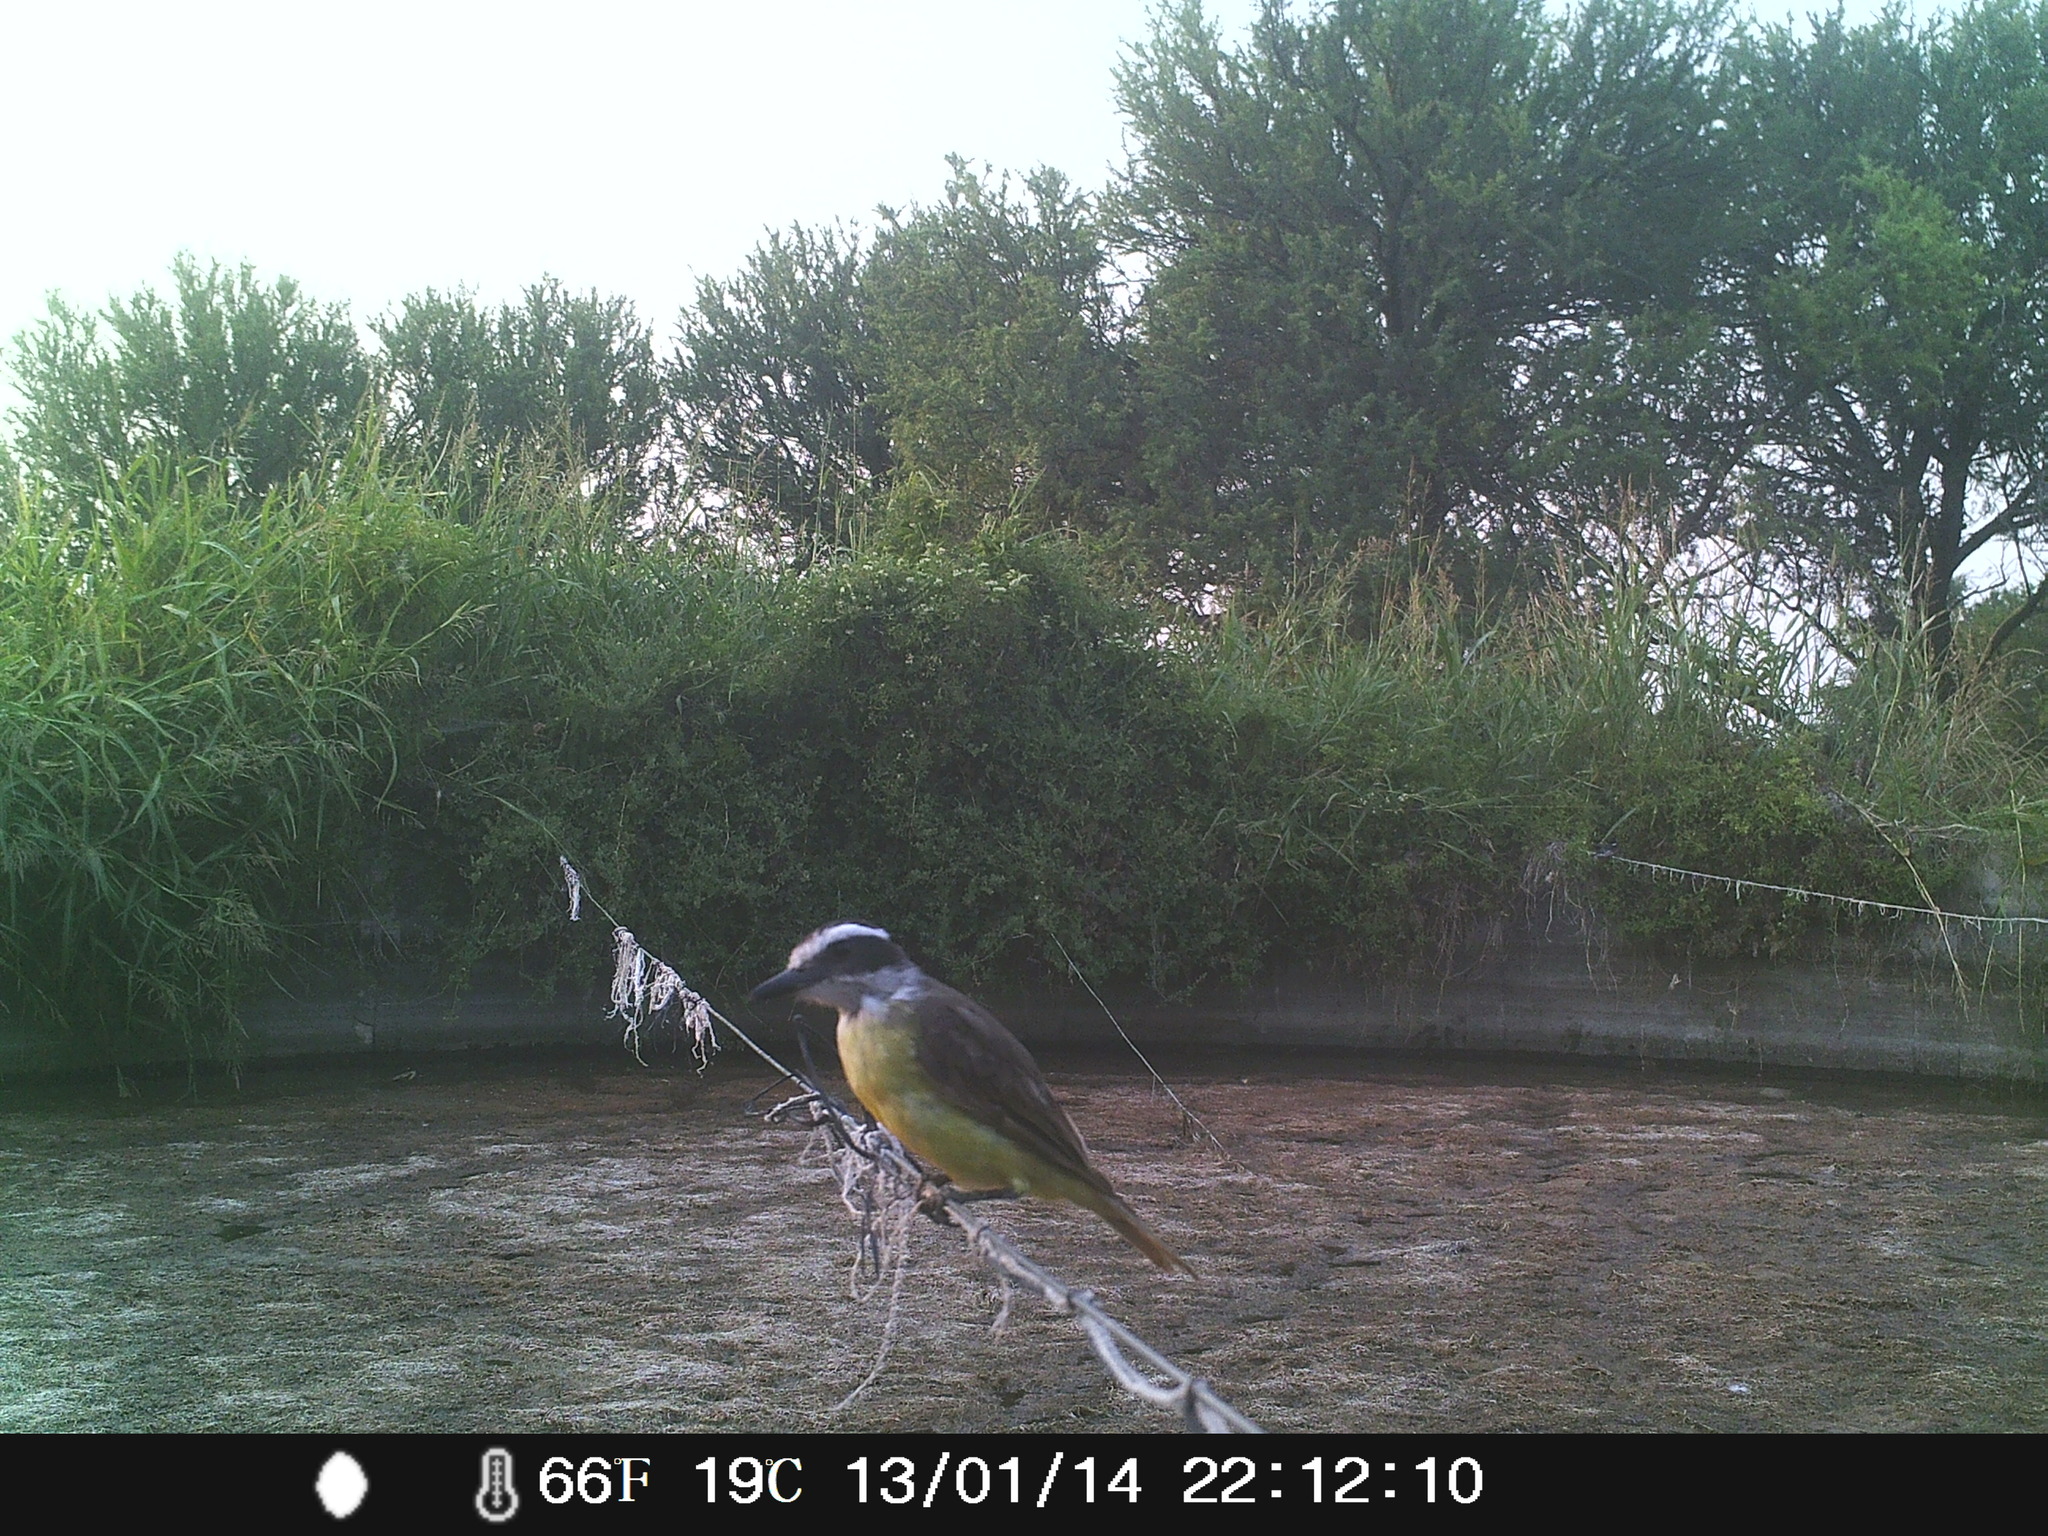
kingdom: Animalia
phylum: Chordata
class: Aves
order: Passeriformes
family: Tyrannidae
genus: Pitangus
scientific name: Pitangus sulphuratus
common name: Great kiskadee
